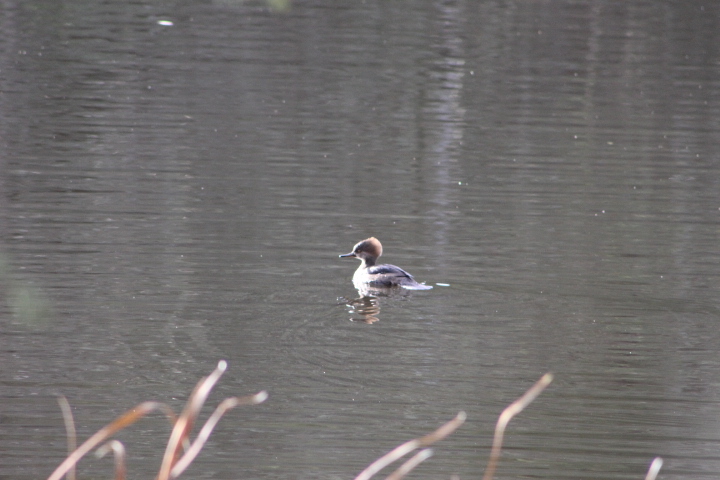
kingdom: Animalia
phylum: Chordata
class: Aves
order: Anseriformes
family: Anatidae
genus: Lophodytes
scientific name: Lophodytes cucullatus
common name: Hooded merganser
